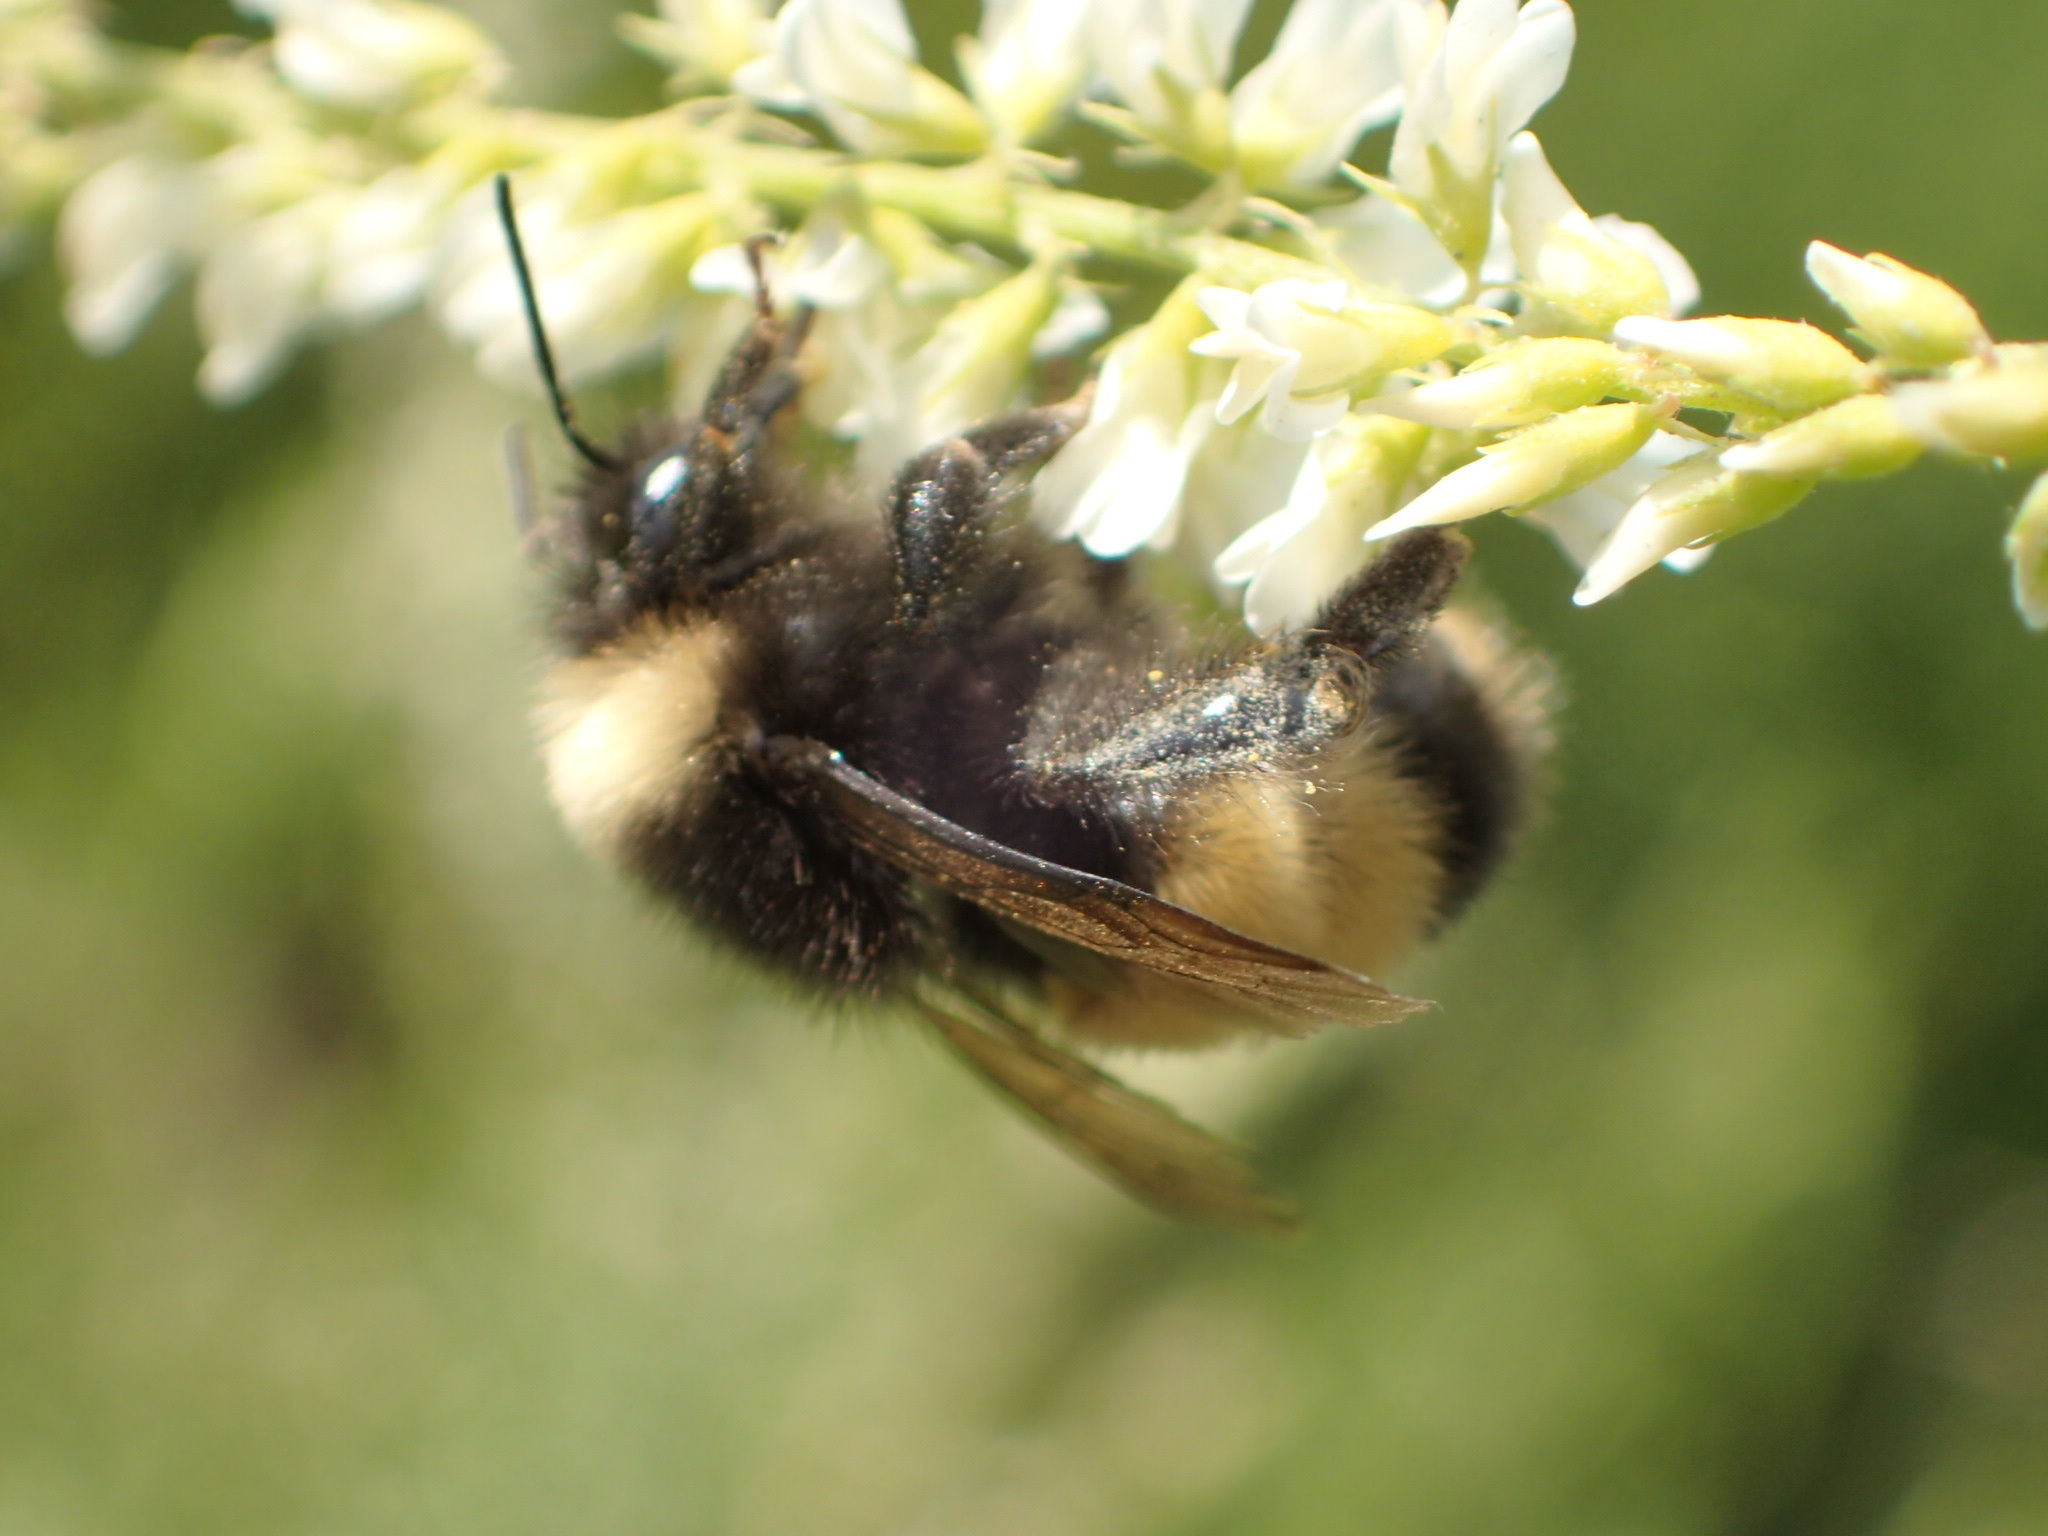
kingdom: Animalia
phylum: Arthropoda
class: Insecta
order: Hymenoptera
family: Apidae
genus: Bombus
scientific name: Bombus terricola
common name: Yellow-banded bumble bee
